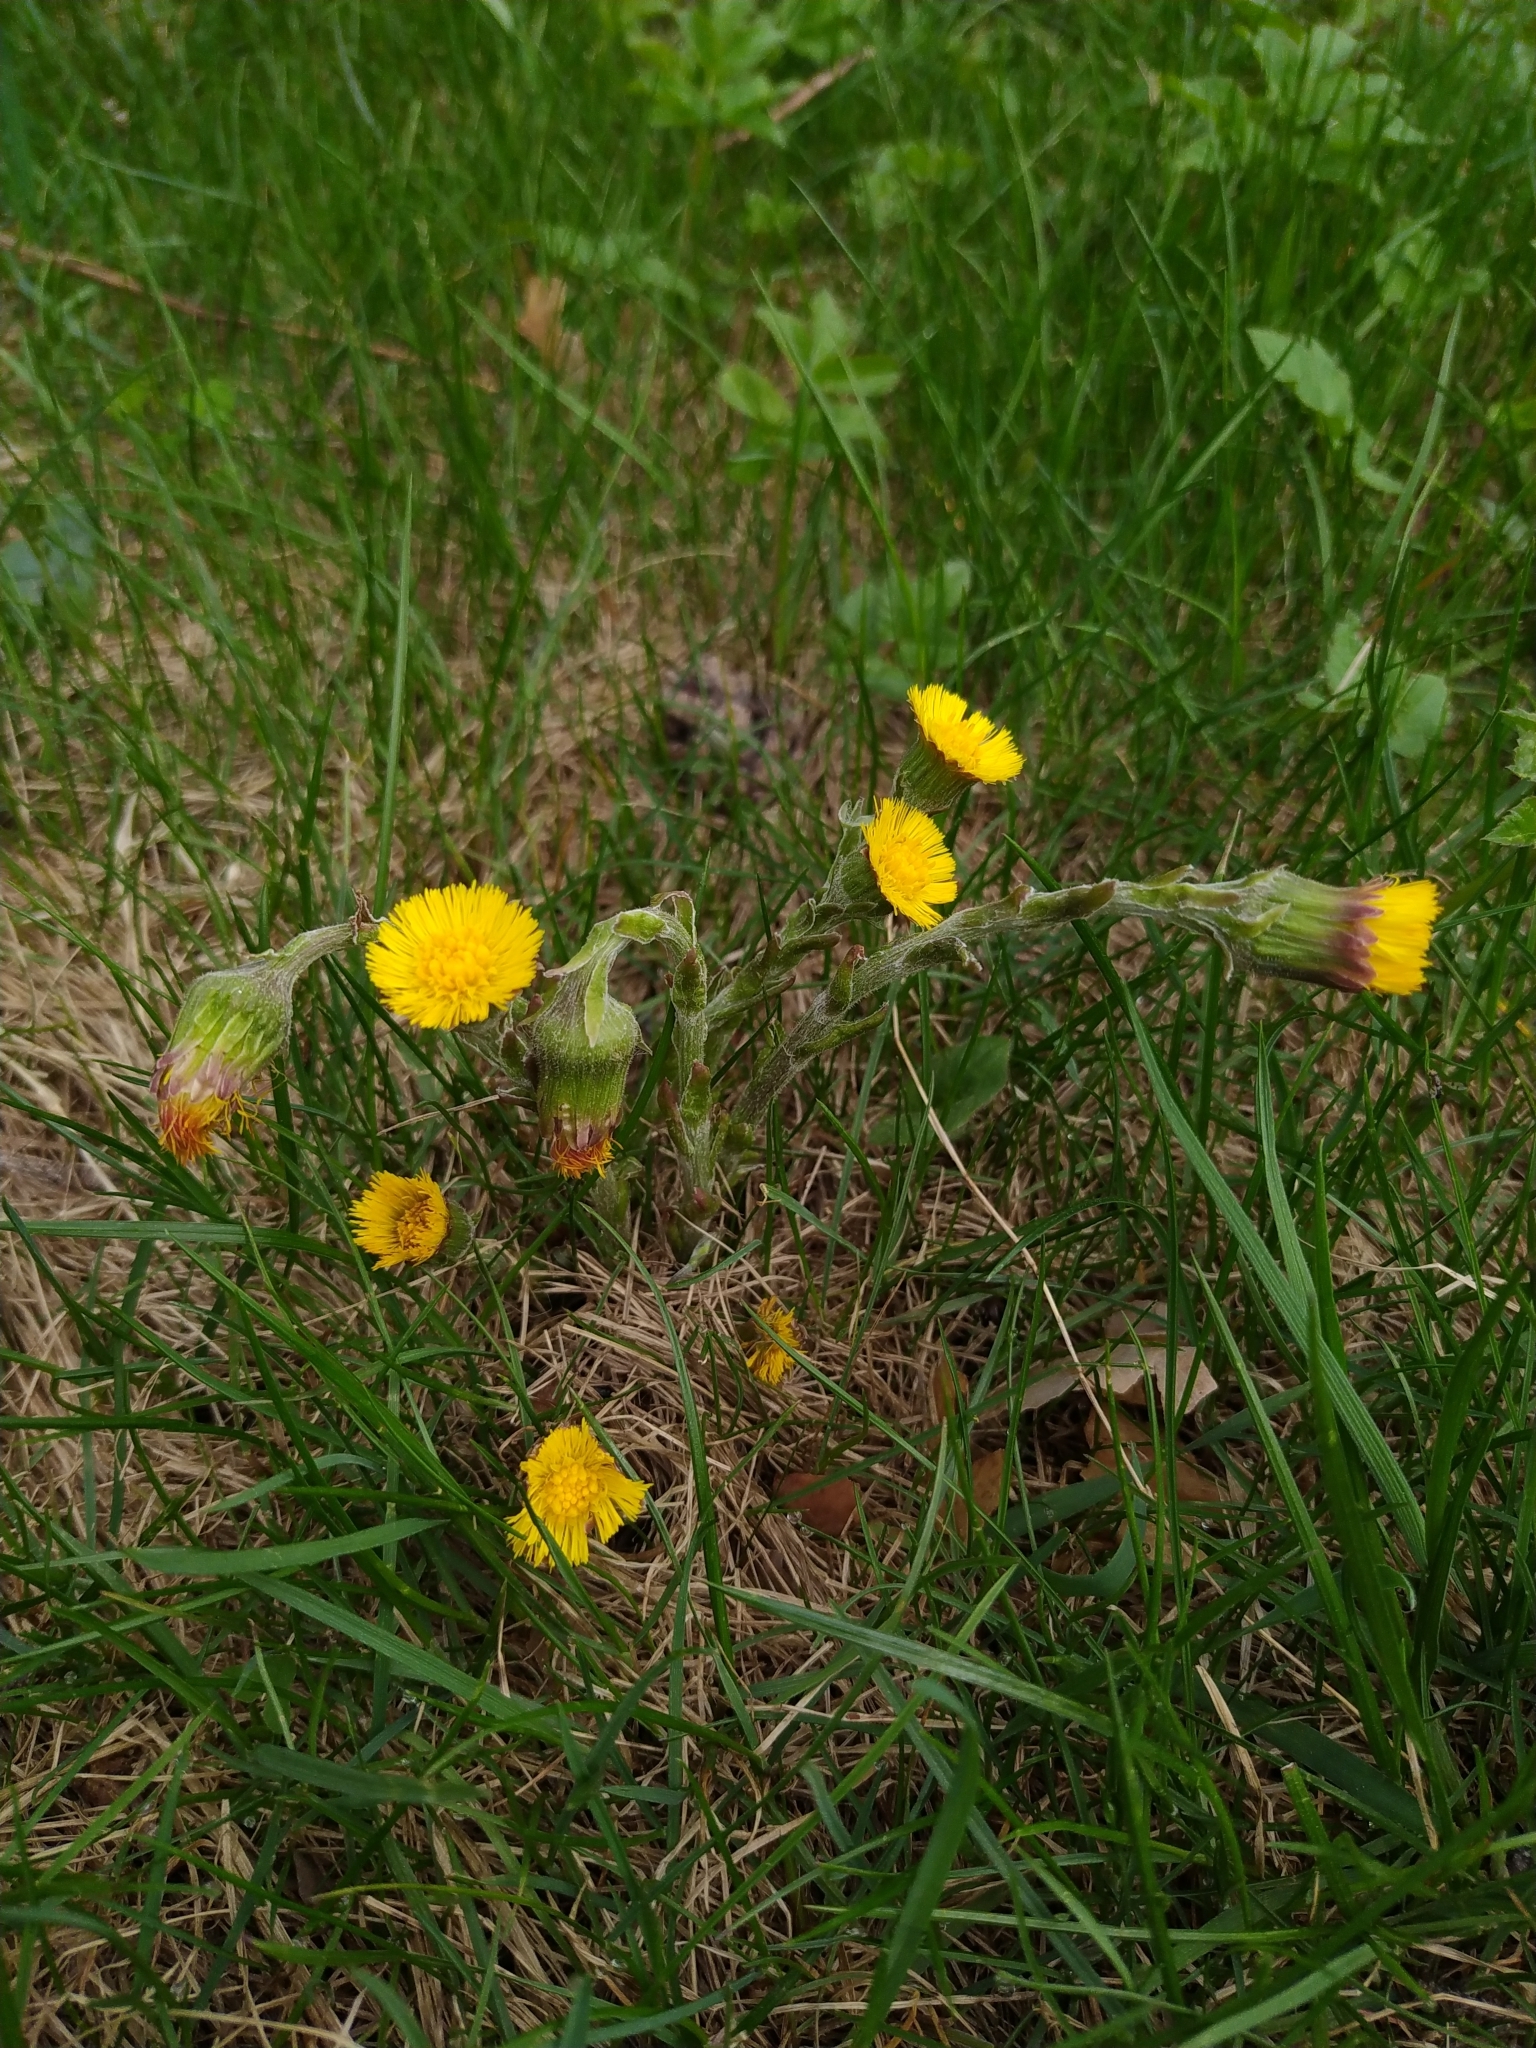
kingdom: Plantae
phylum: Tracheophyta
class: Magnoliopsida
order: Asterales
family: Asteraceae
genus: Tussilago
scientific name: Tussilago farfara
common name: Coltsfoot
